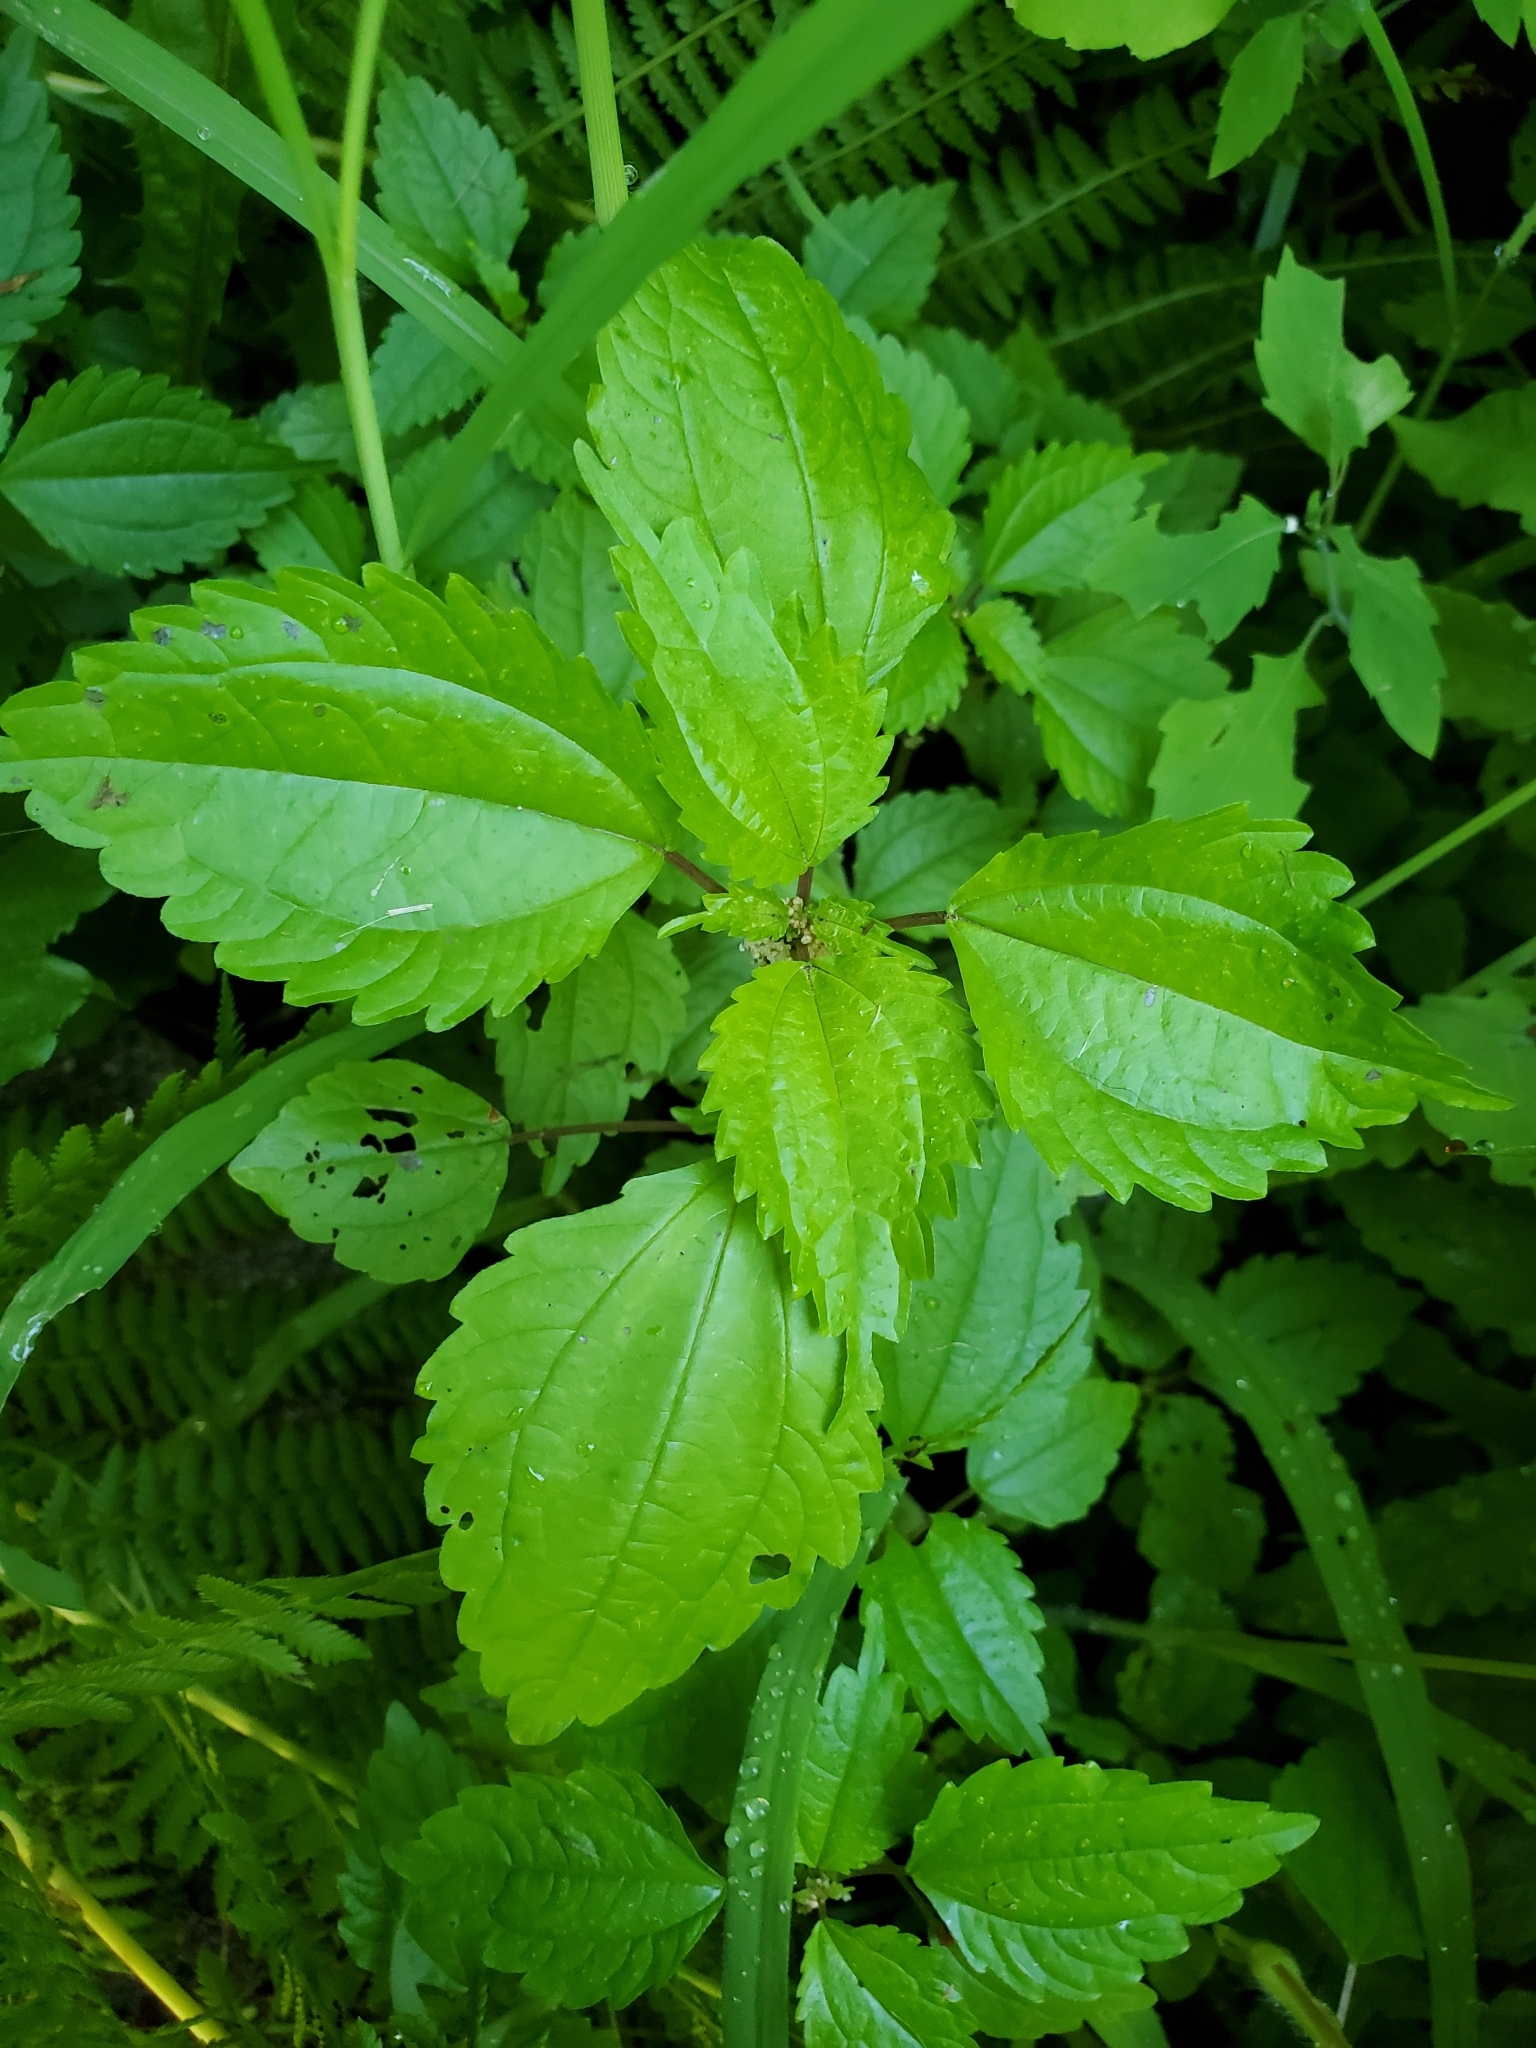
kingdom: Plantae
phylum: Tracheophyta
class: Magnoliopsida
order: Rosales
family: Urticaceae
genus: Pilea
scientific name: Pilea pumila
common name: Clearweed
